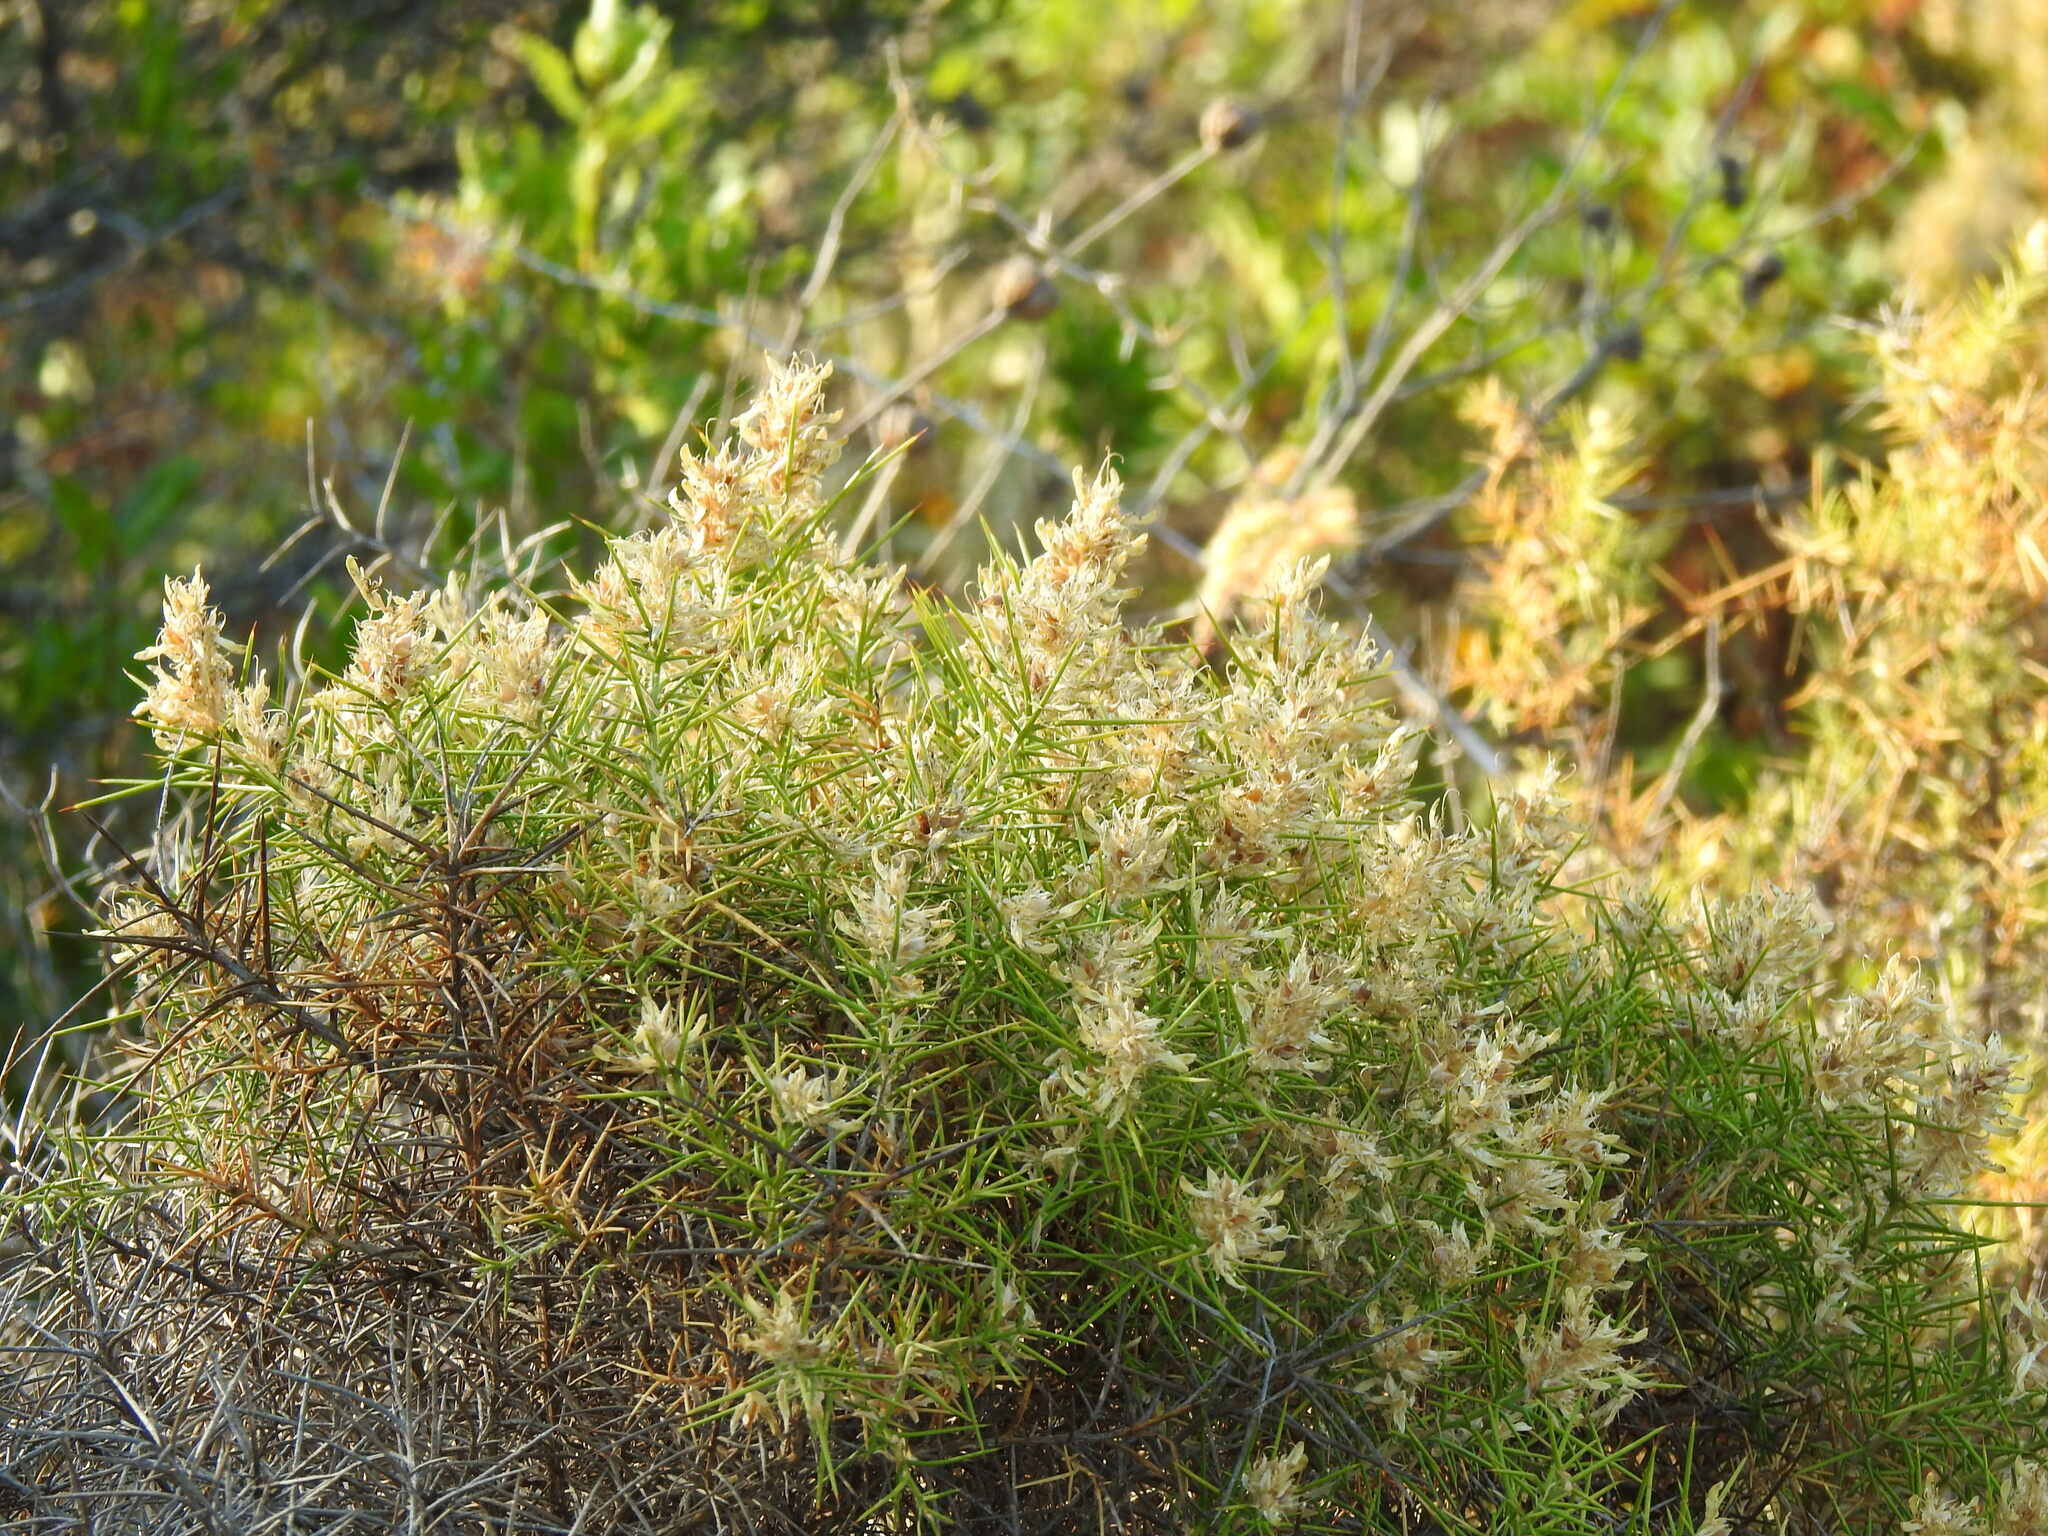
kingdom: Plantae
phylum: Tracheophyta
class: Magnoliopsida
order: Fabales
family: Fabaceae
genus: Genista
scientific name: Genista hirsuta
